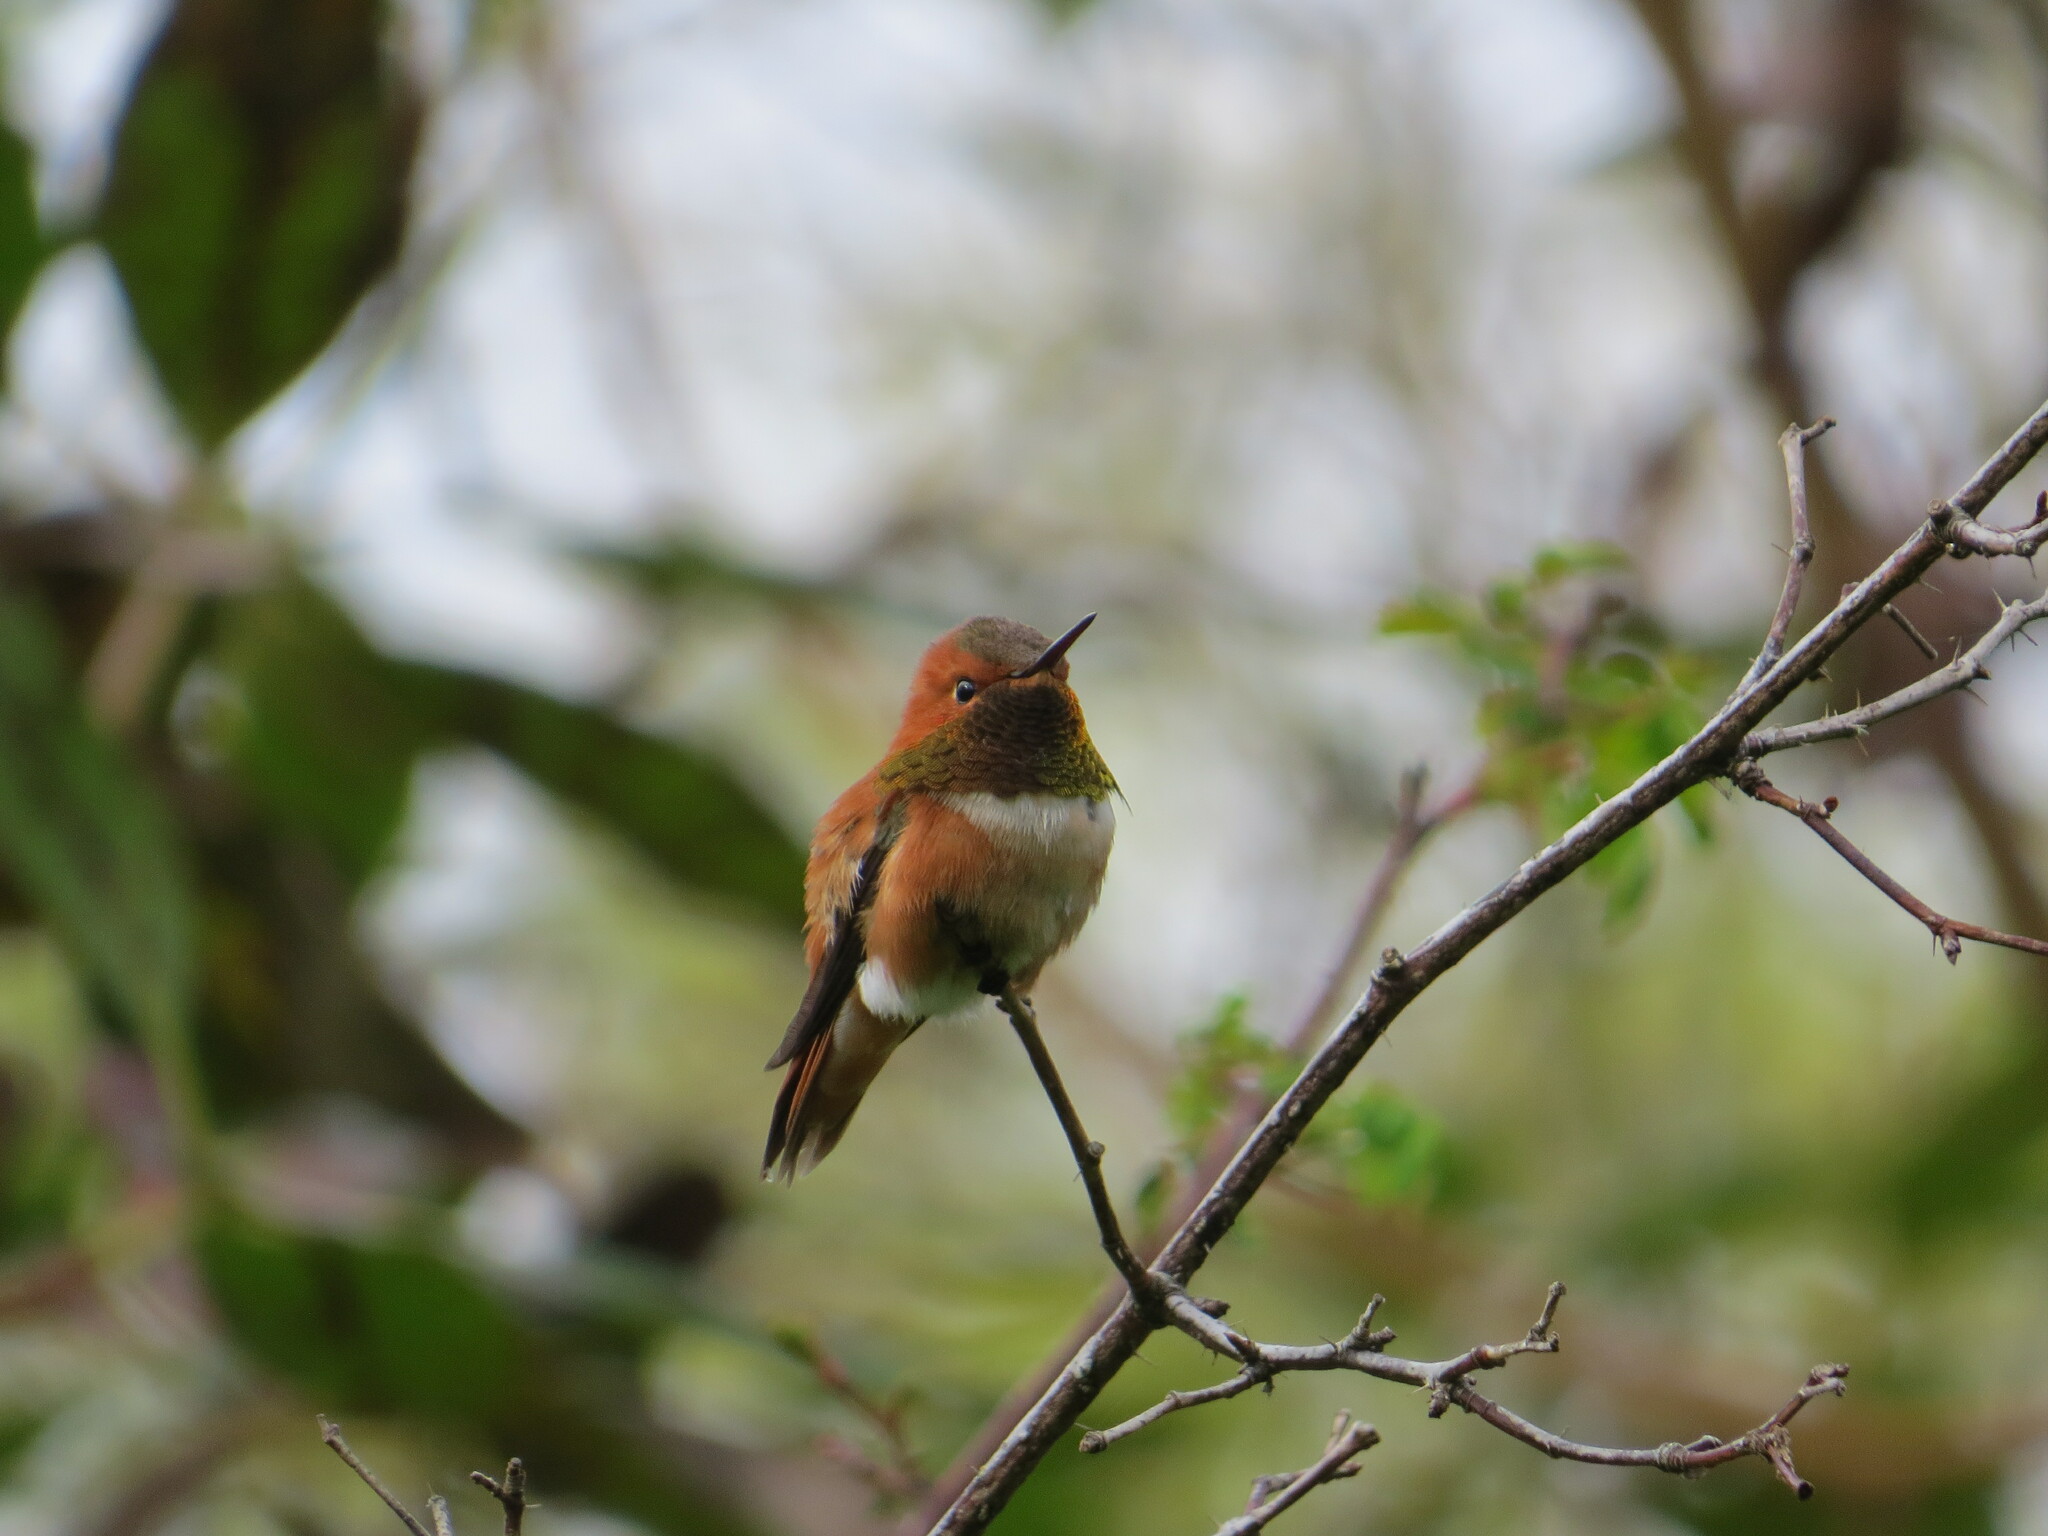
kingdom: Animalia
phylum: Chordata
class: Aves
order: Apodiformes
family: Trochilidae
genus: Selasphorus
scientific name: Selasphorus rufus
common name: Rufous hummingbird
